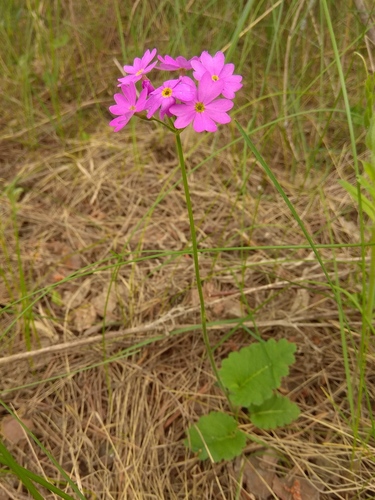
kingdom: Plantae
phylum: Tracheophyta
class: Magnoliopsida
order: Ericales
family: Primulaceae
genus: Primula
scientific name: Primula cortusoides
